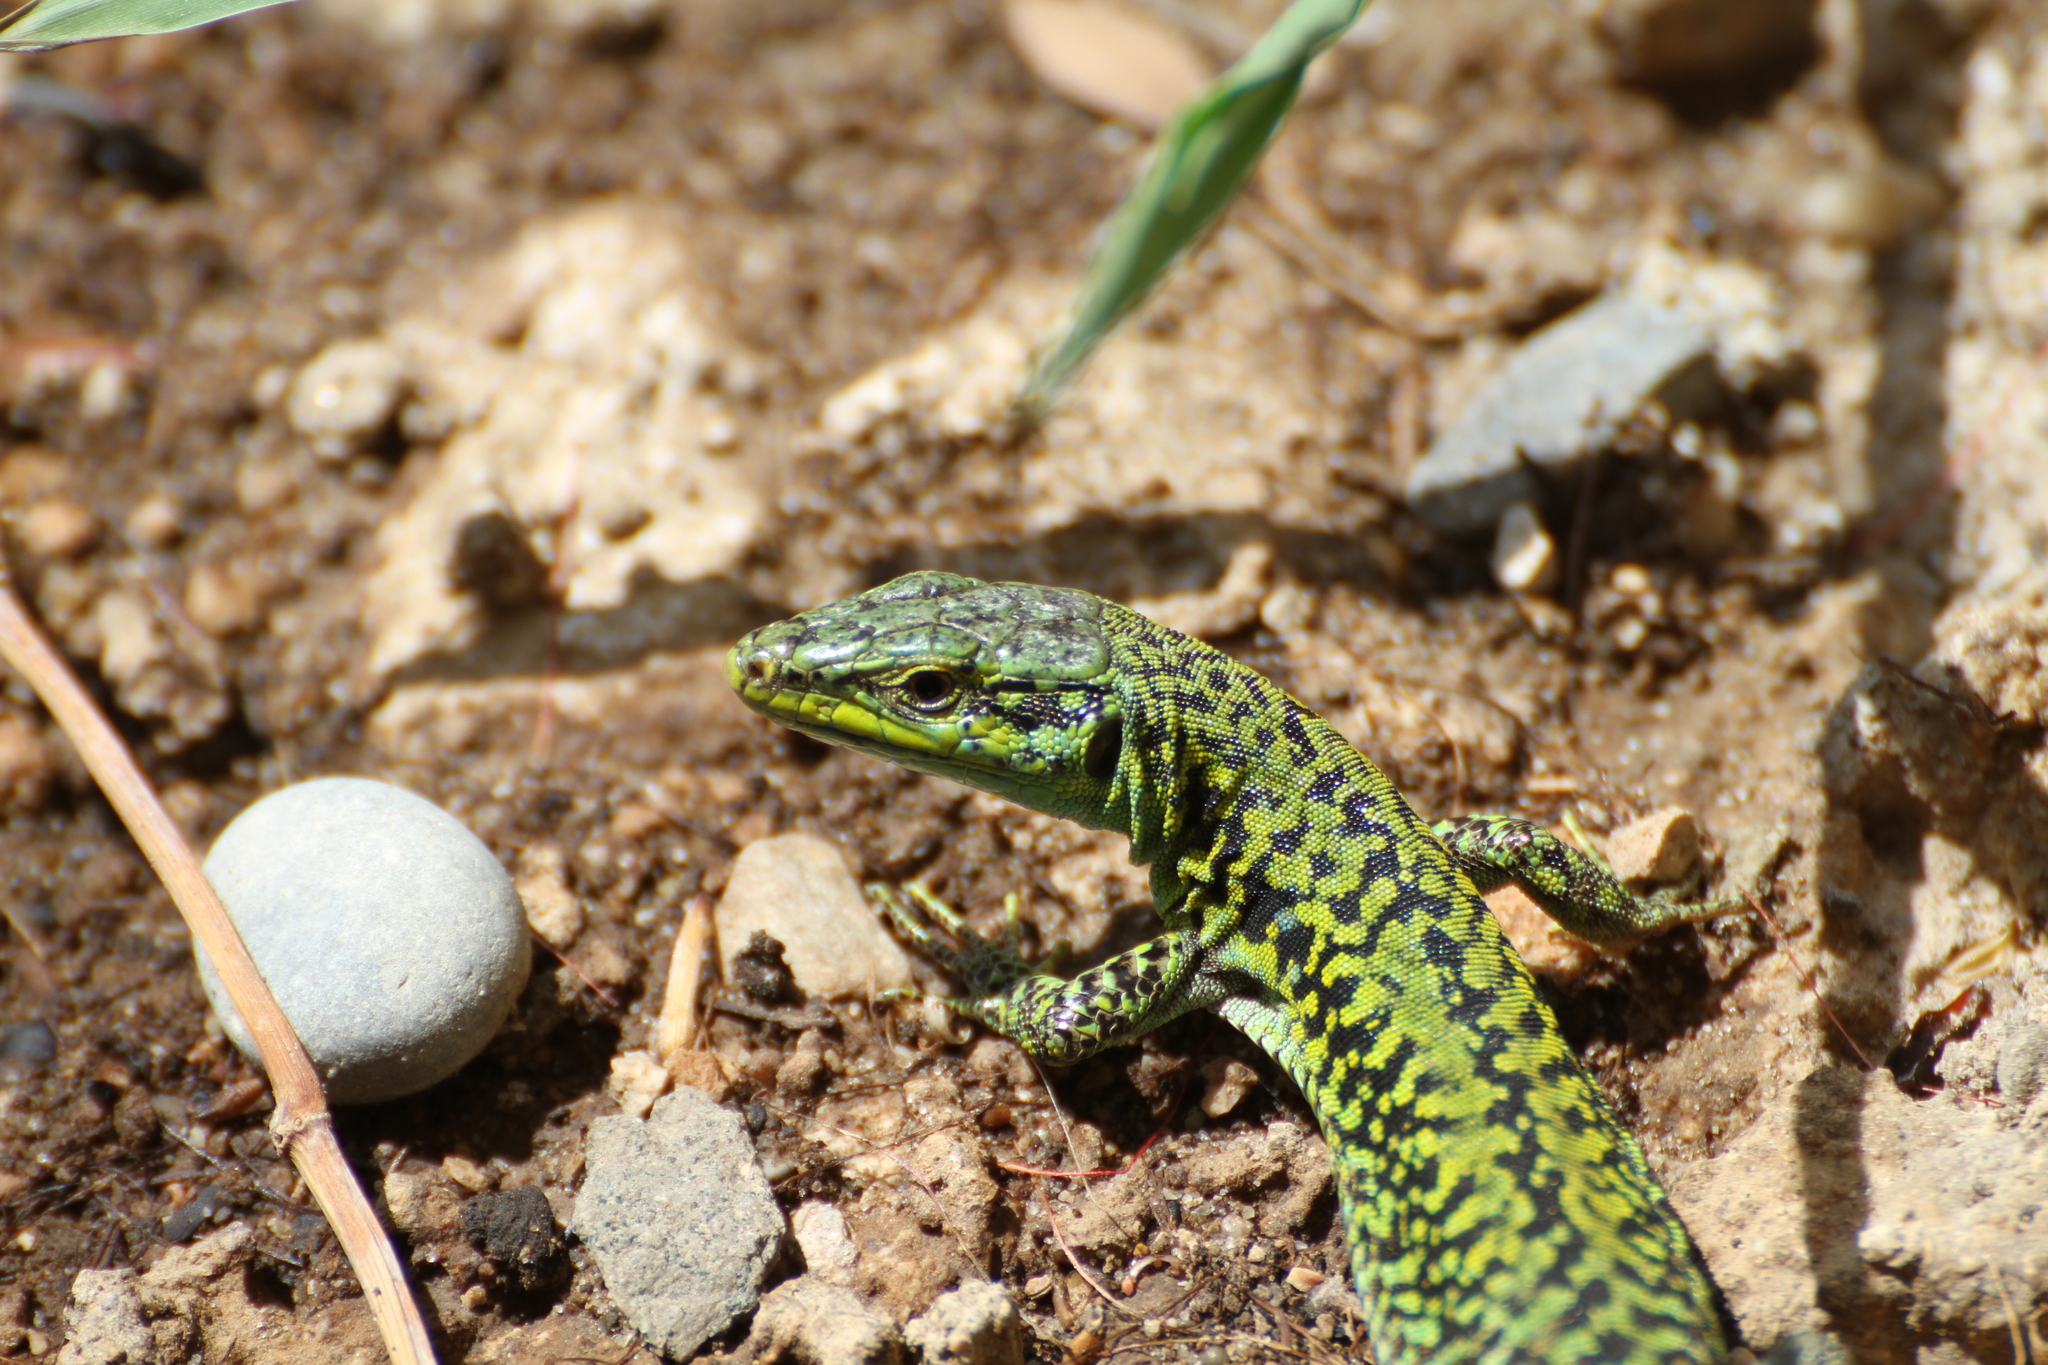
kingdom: Animalia
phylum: Chordata
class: Squamata
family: Lacertidae
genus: Podarcis
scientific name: Podarcis siculus
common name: Italian wall lizard
